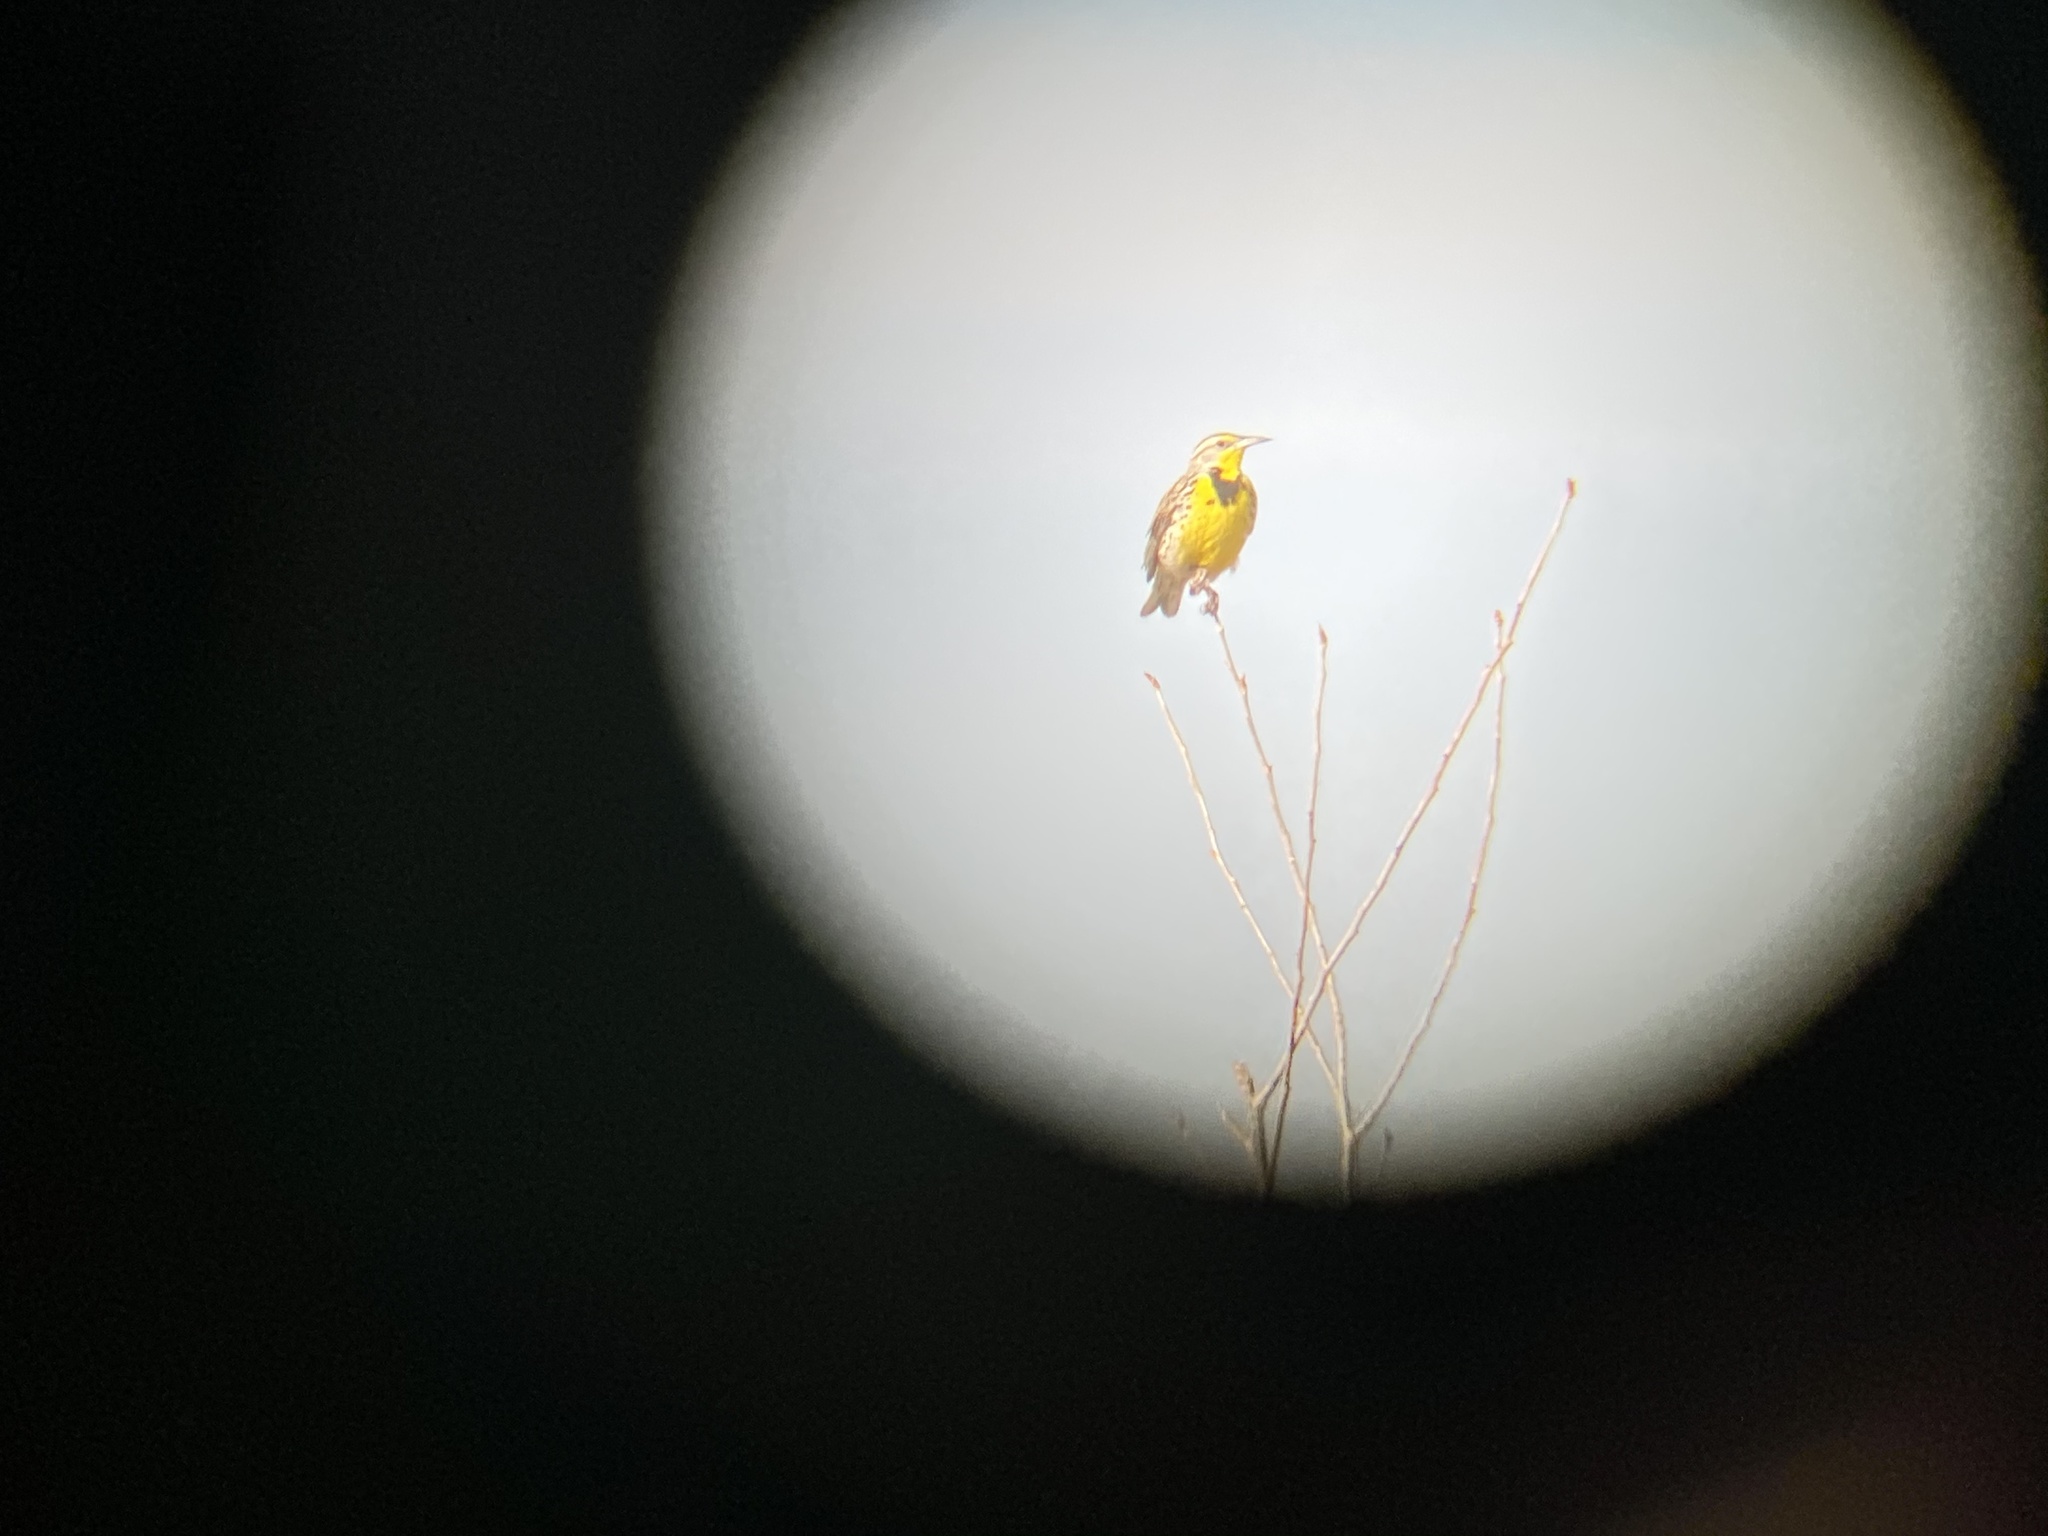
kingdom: Animalia
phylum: Chordata
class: Aves
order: Passeriformes
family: Icteridae
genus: Sturnella
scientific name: Sturnella neglecta
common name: Western meadowlark
